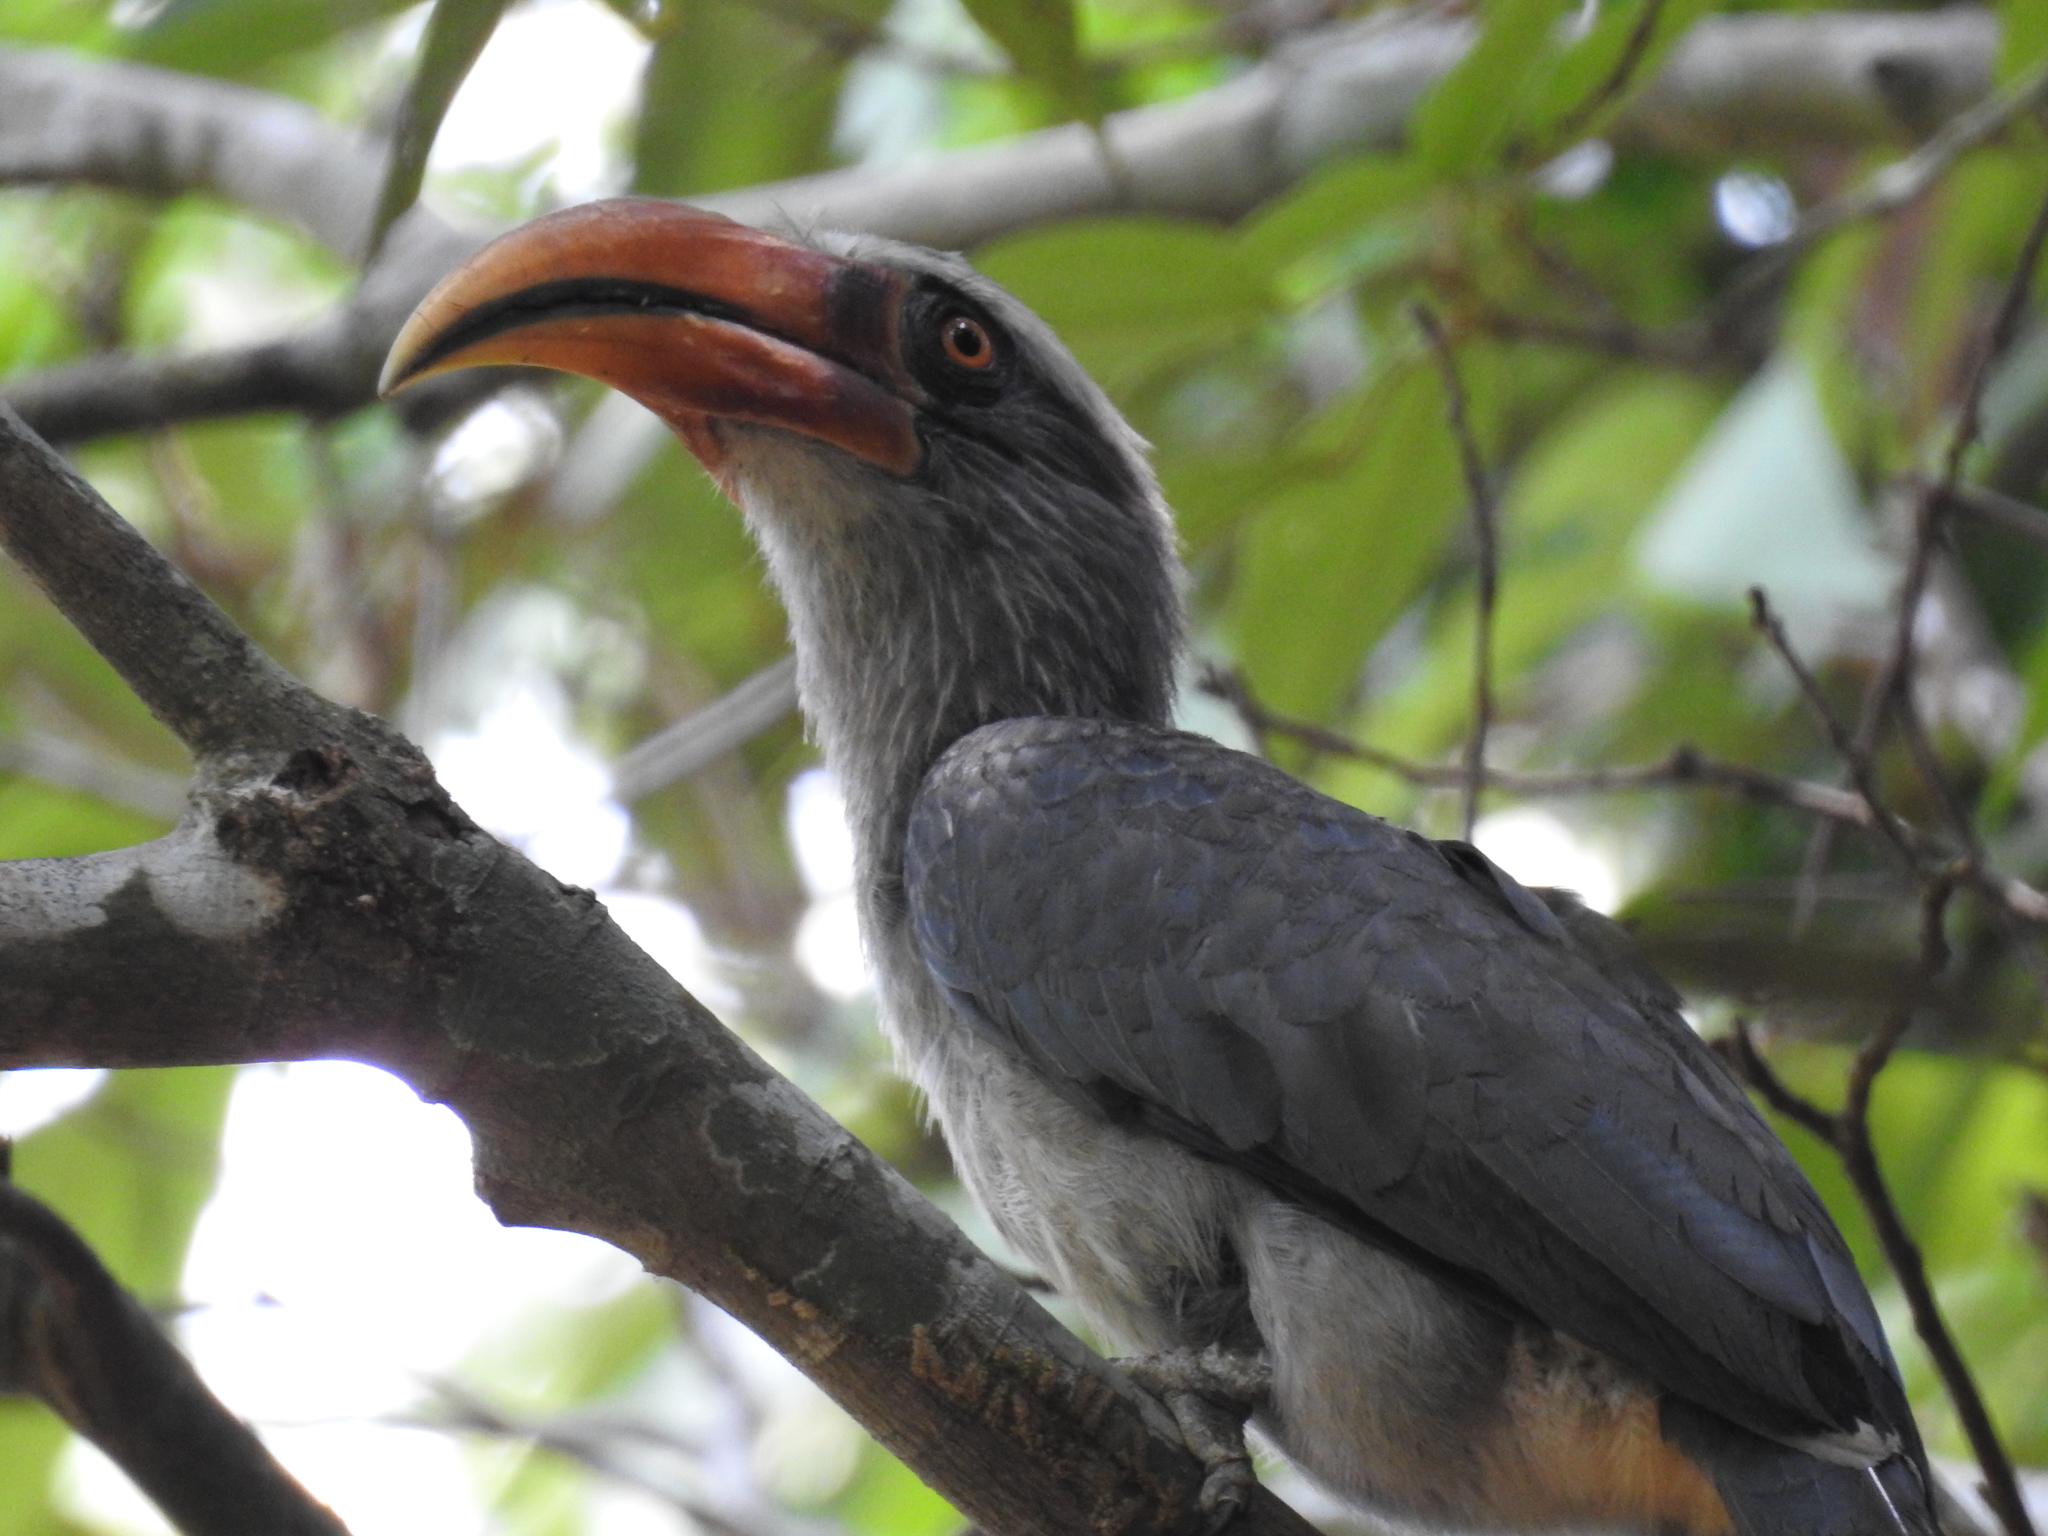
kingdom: Animalia
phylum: Chordata
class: Aves
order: Bucerotiformes
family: Bucerotidae
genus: Ocyceros
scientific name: Ocyceros griseus
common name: Malabar grey hornbill
